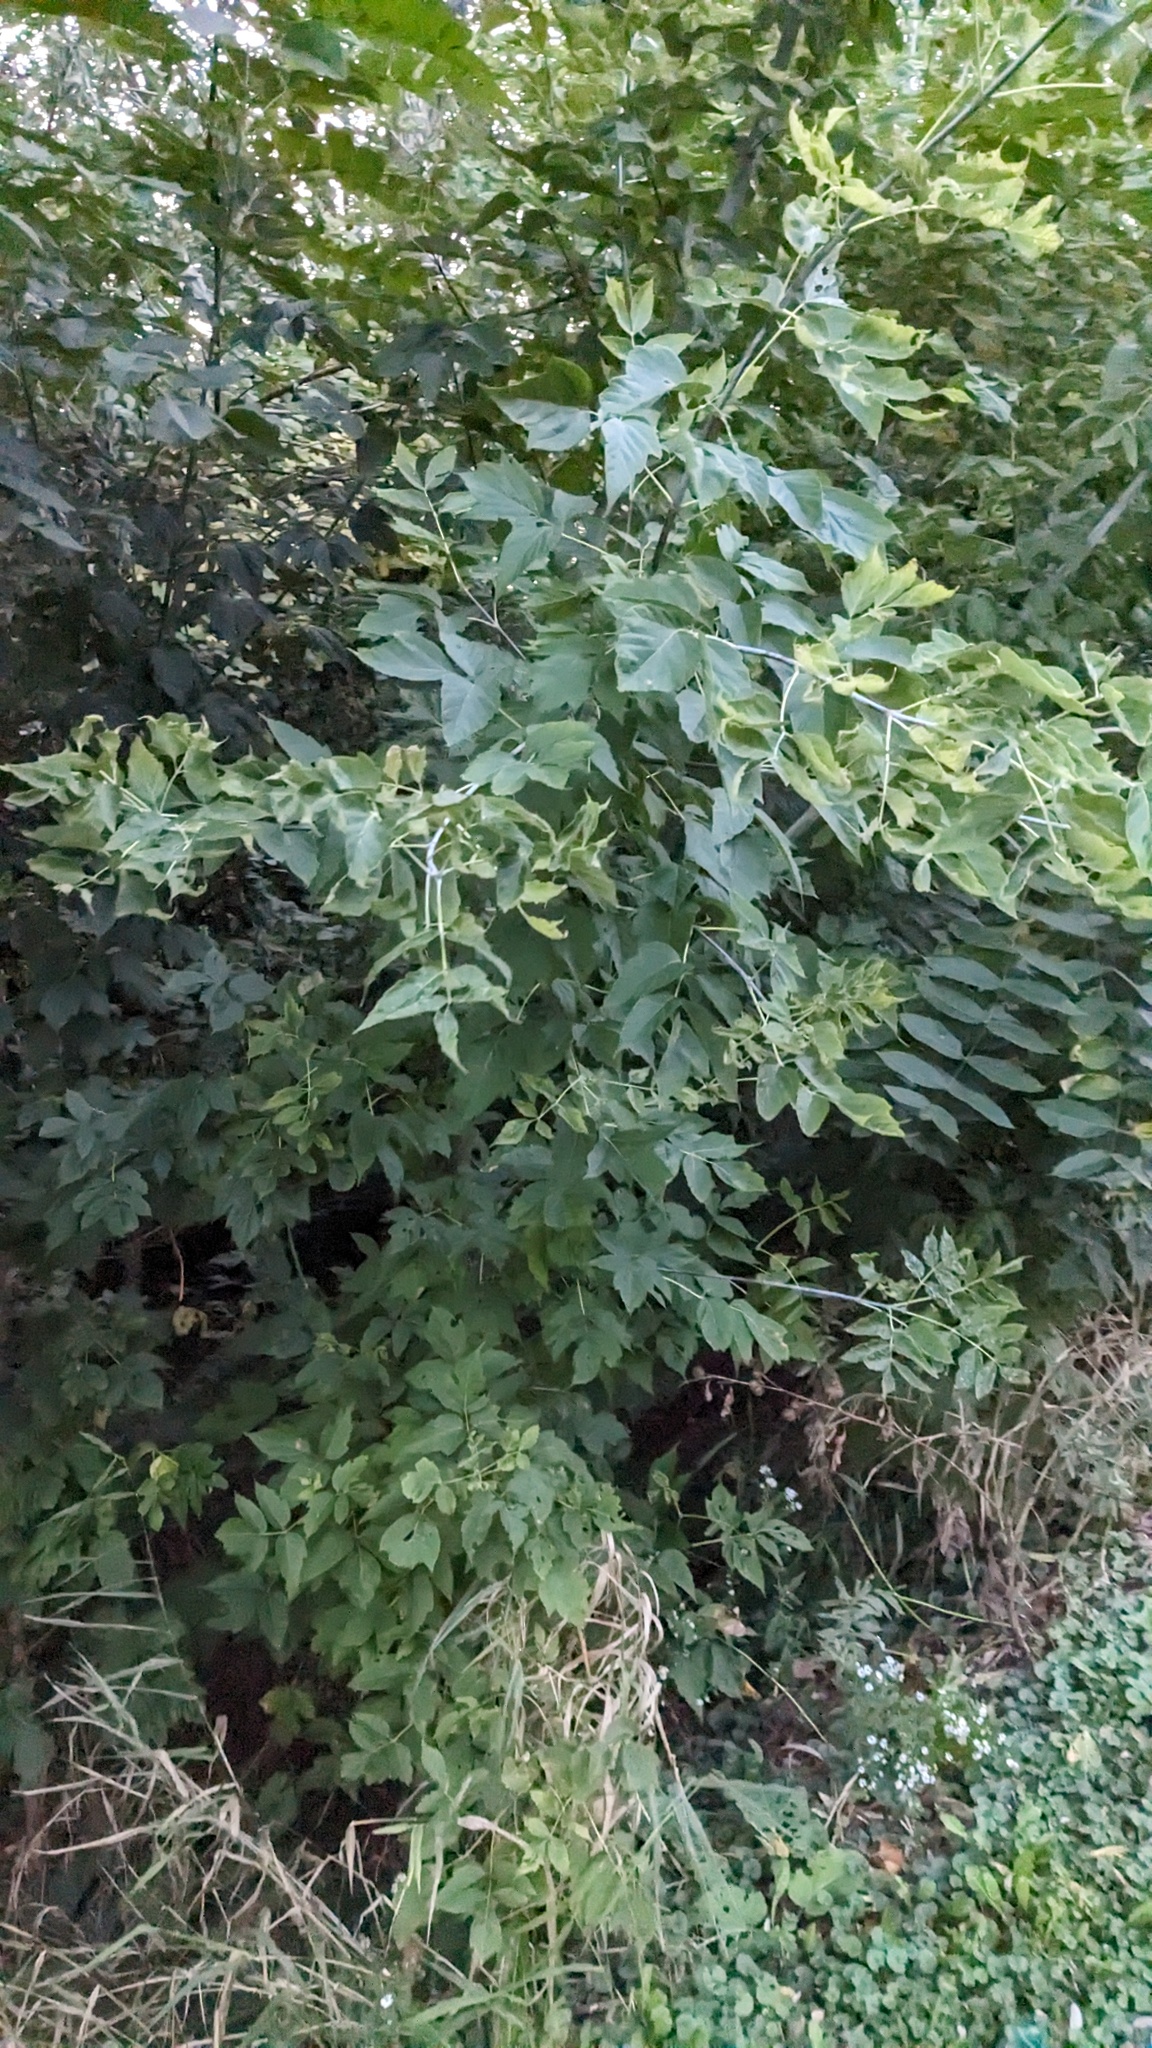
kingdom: Plantae
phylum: Tracheophyta
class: Magnoliopsida
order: Sapindales
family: Sapindaceae
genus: Acer
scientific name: Acer negundo
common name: Ashleaf maple
